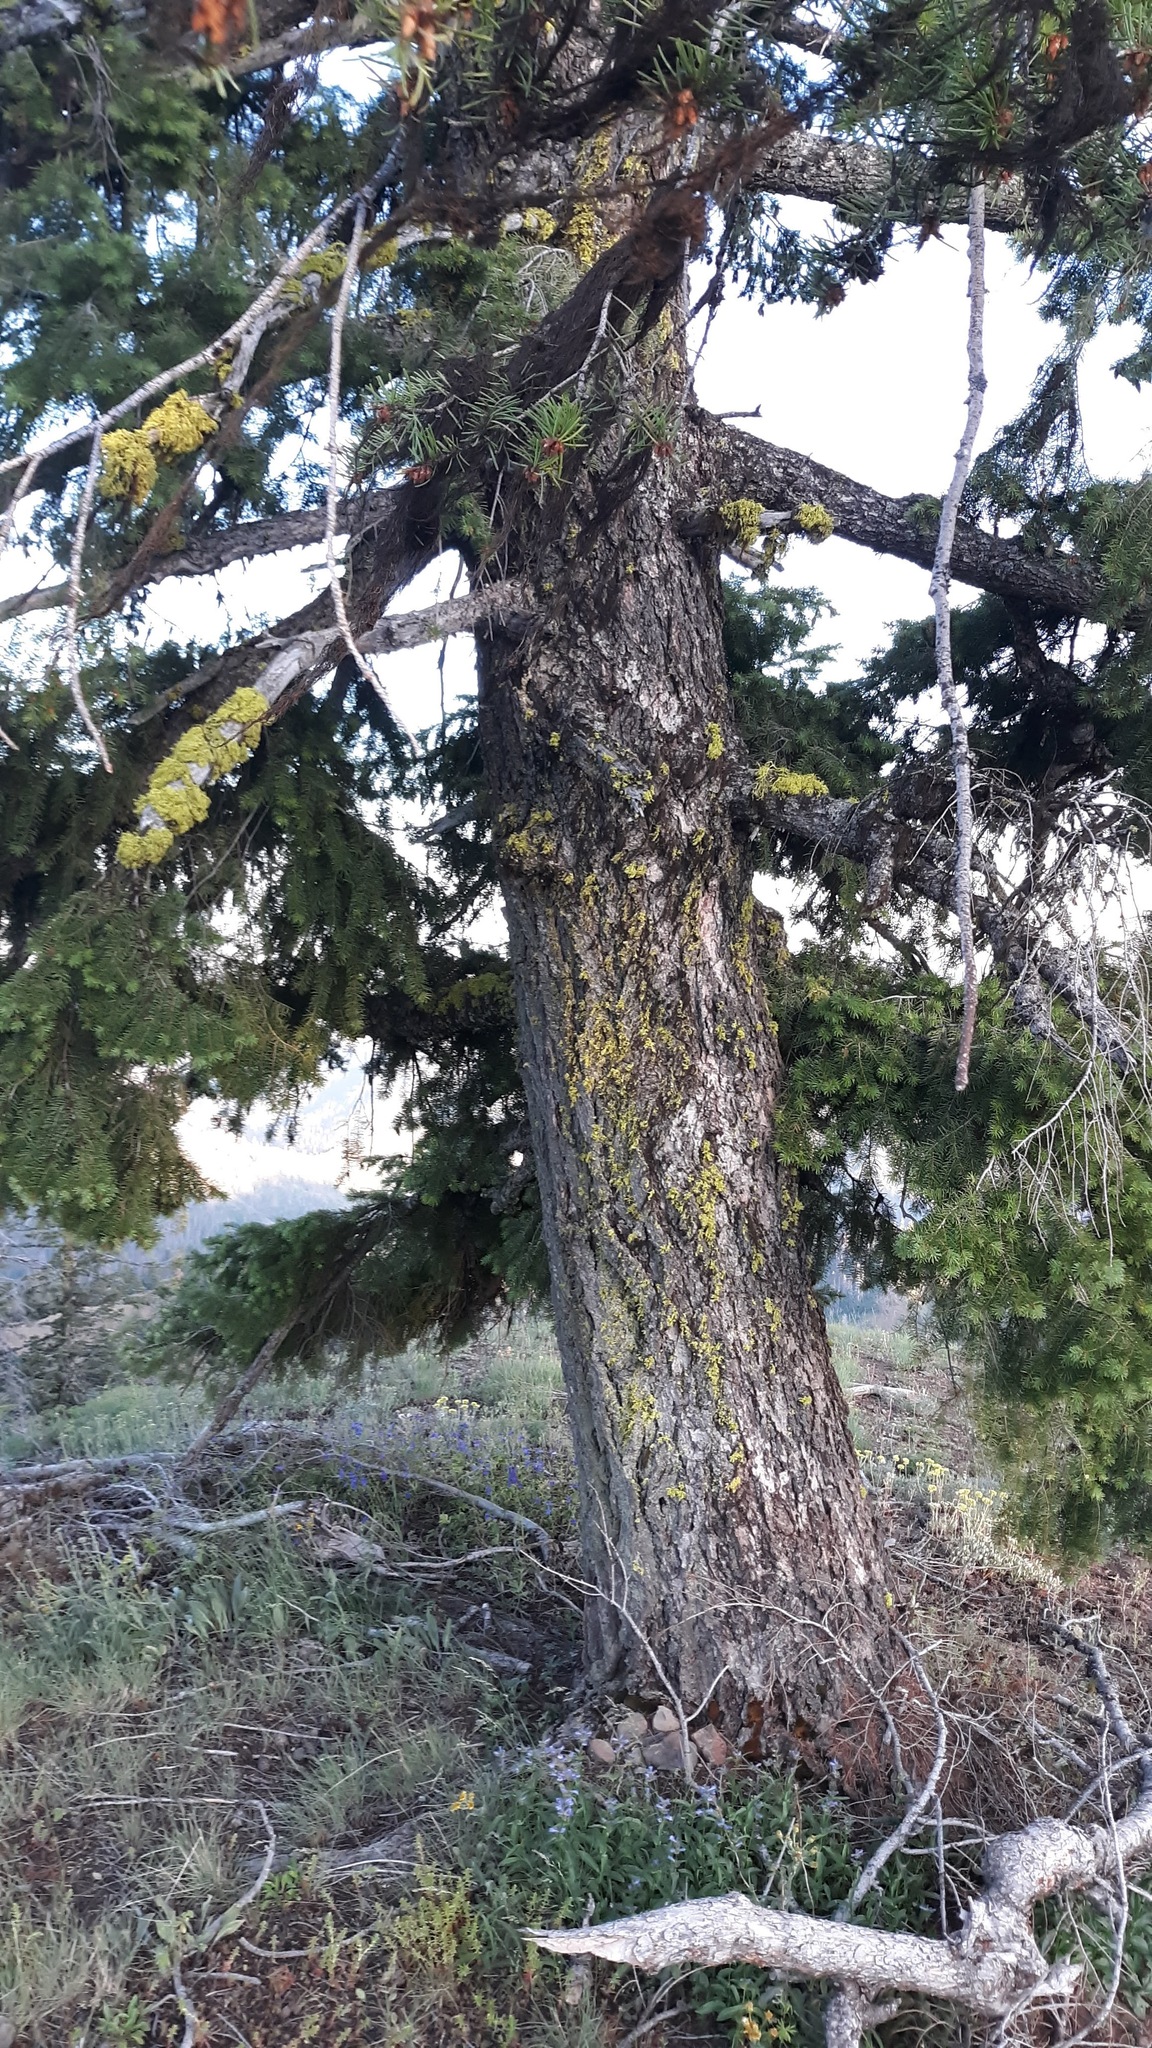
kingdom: Plantae
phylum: Tracheophyta
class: Pinopsida
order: Pinales
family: Pinaceae
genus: Pseudotsuga
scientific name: Pseudotsuga menziesii
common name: Douglas fir
